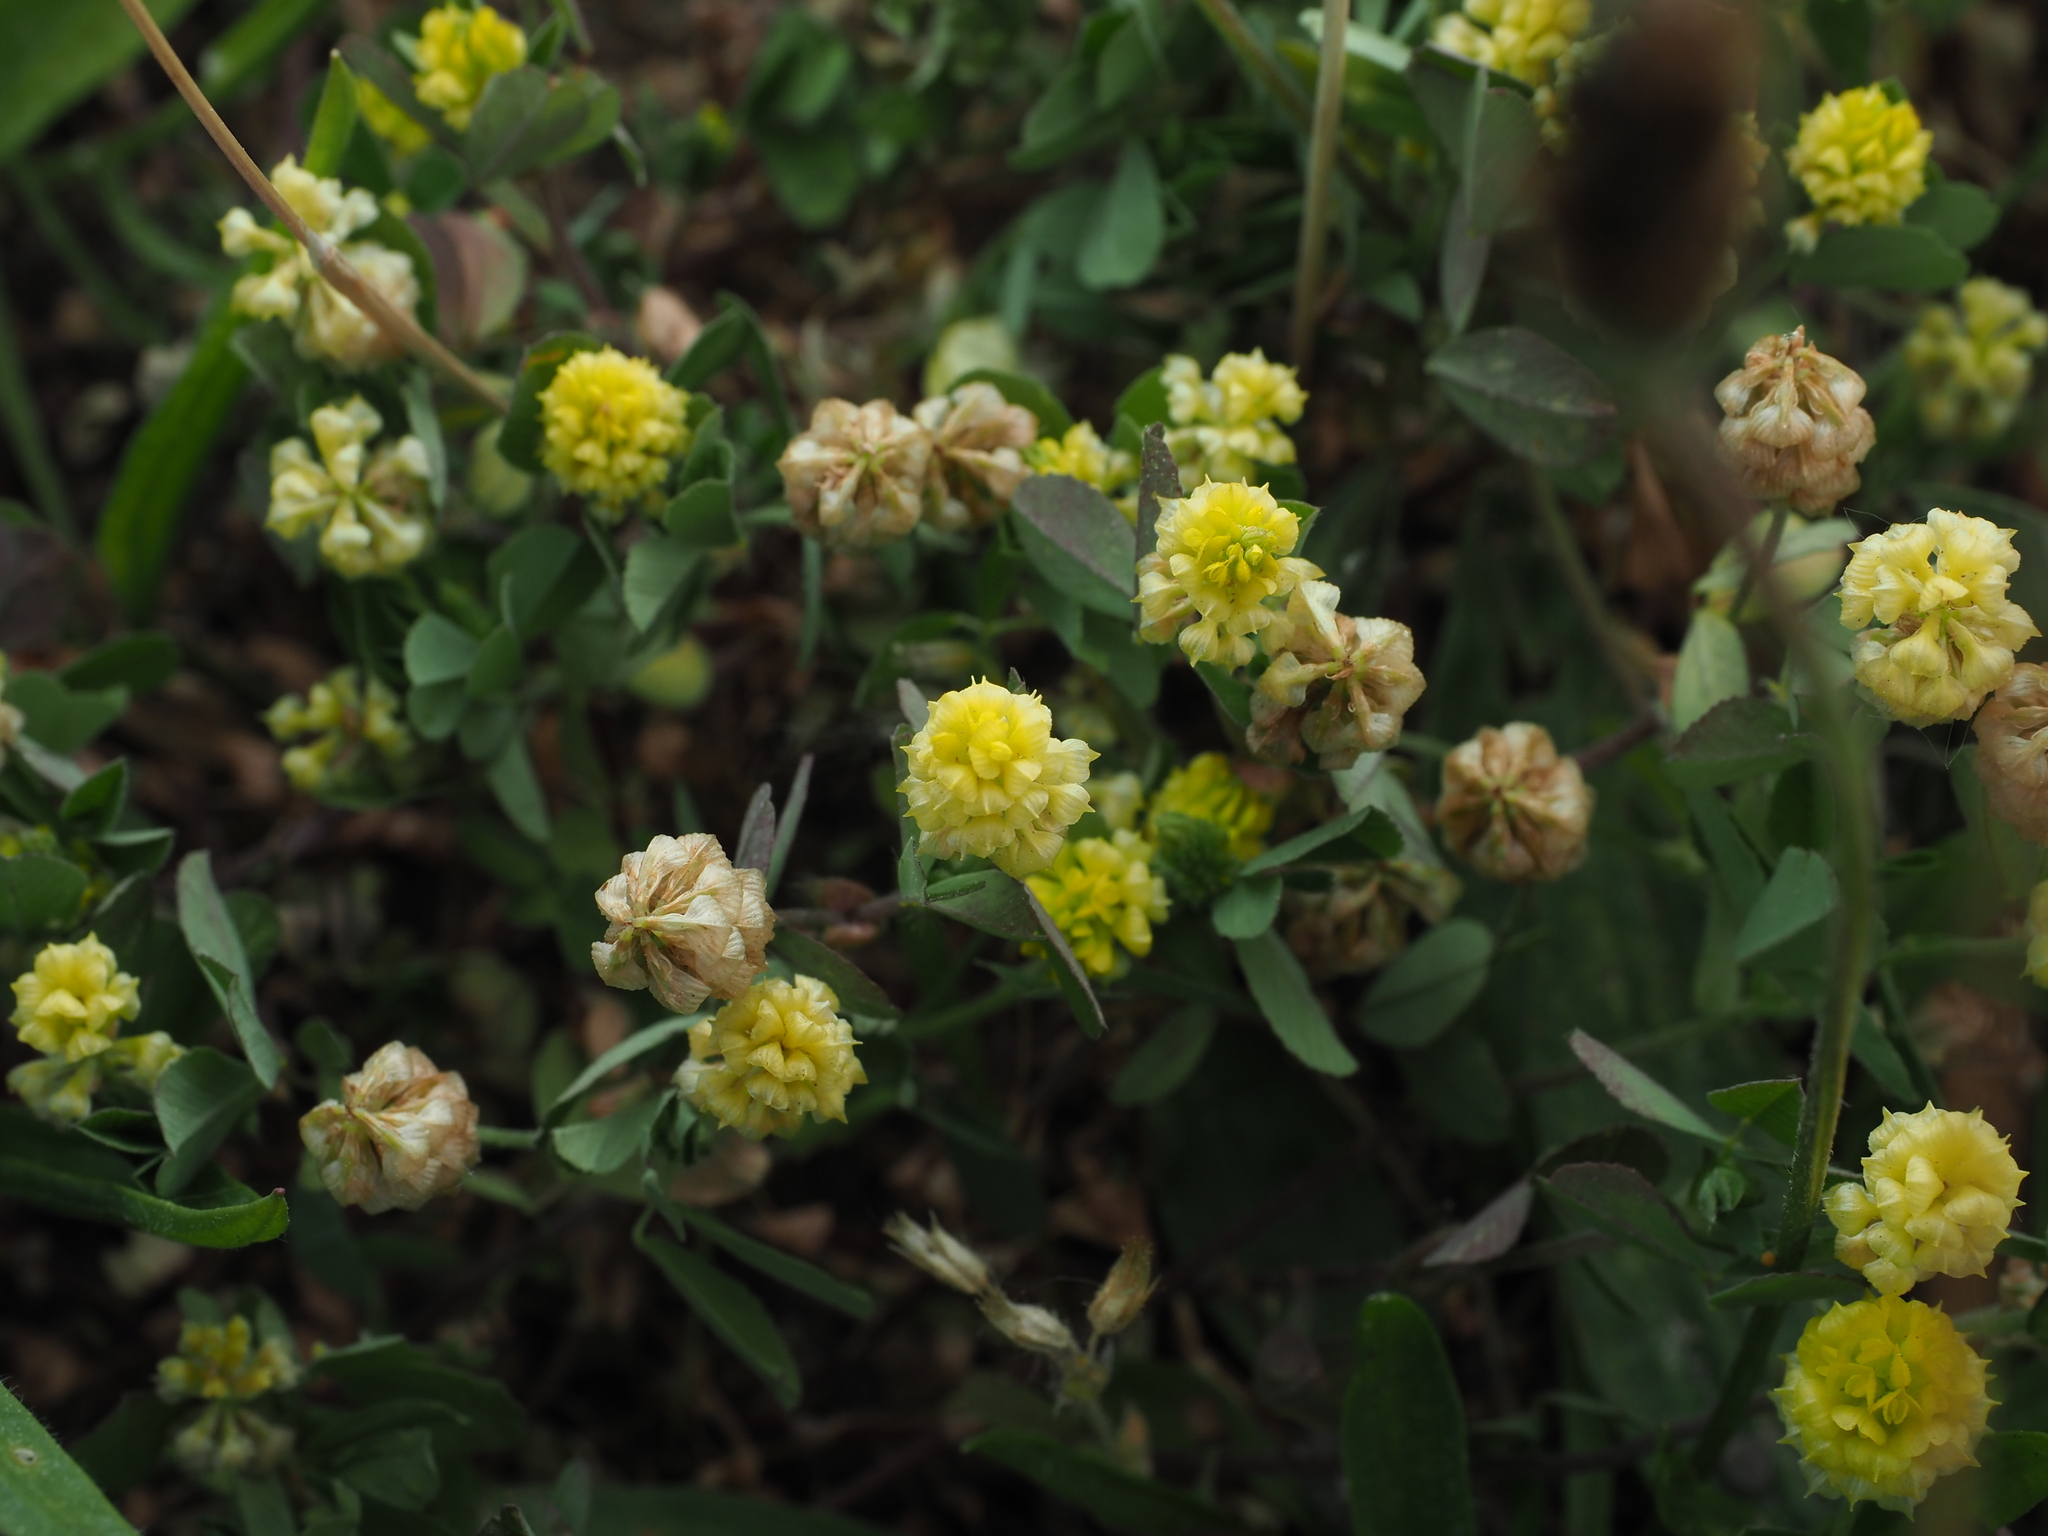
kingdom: Plantae
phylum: Tracheophyta
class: Magnoliopsida
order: Fabales
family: Fabaceae
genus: Trifolium
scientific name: Trifolium campestre
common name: Field clover
